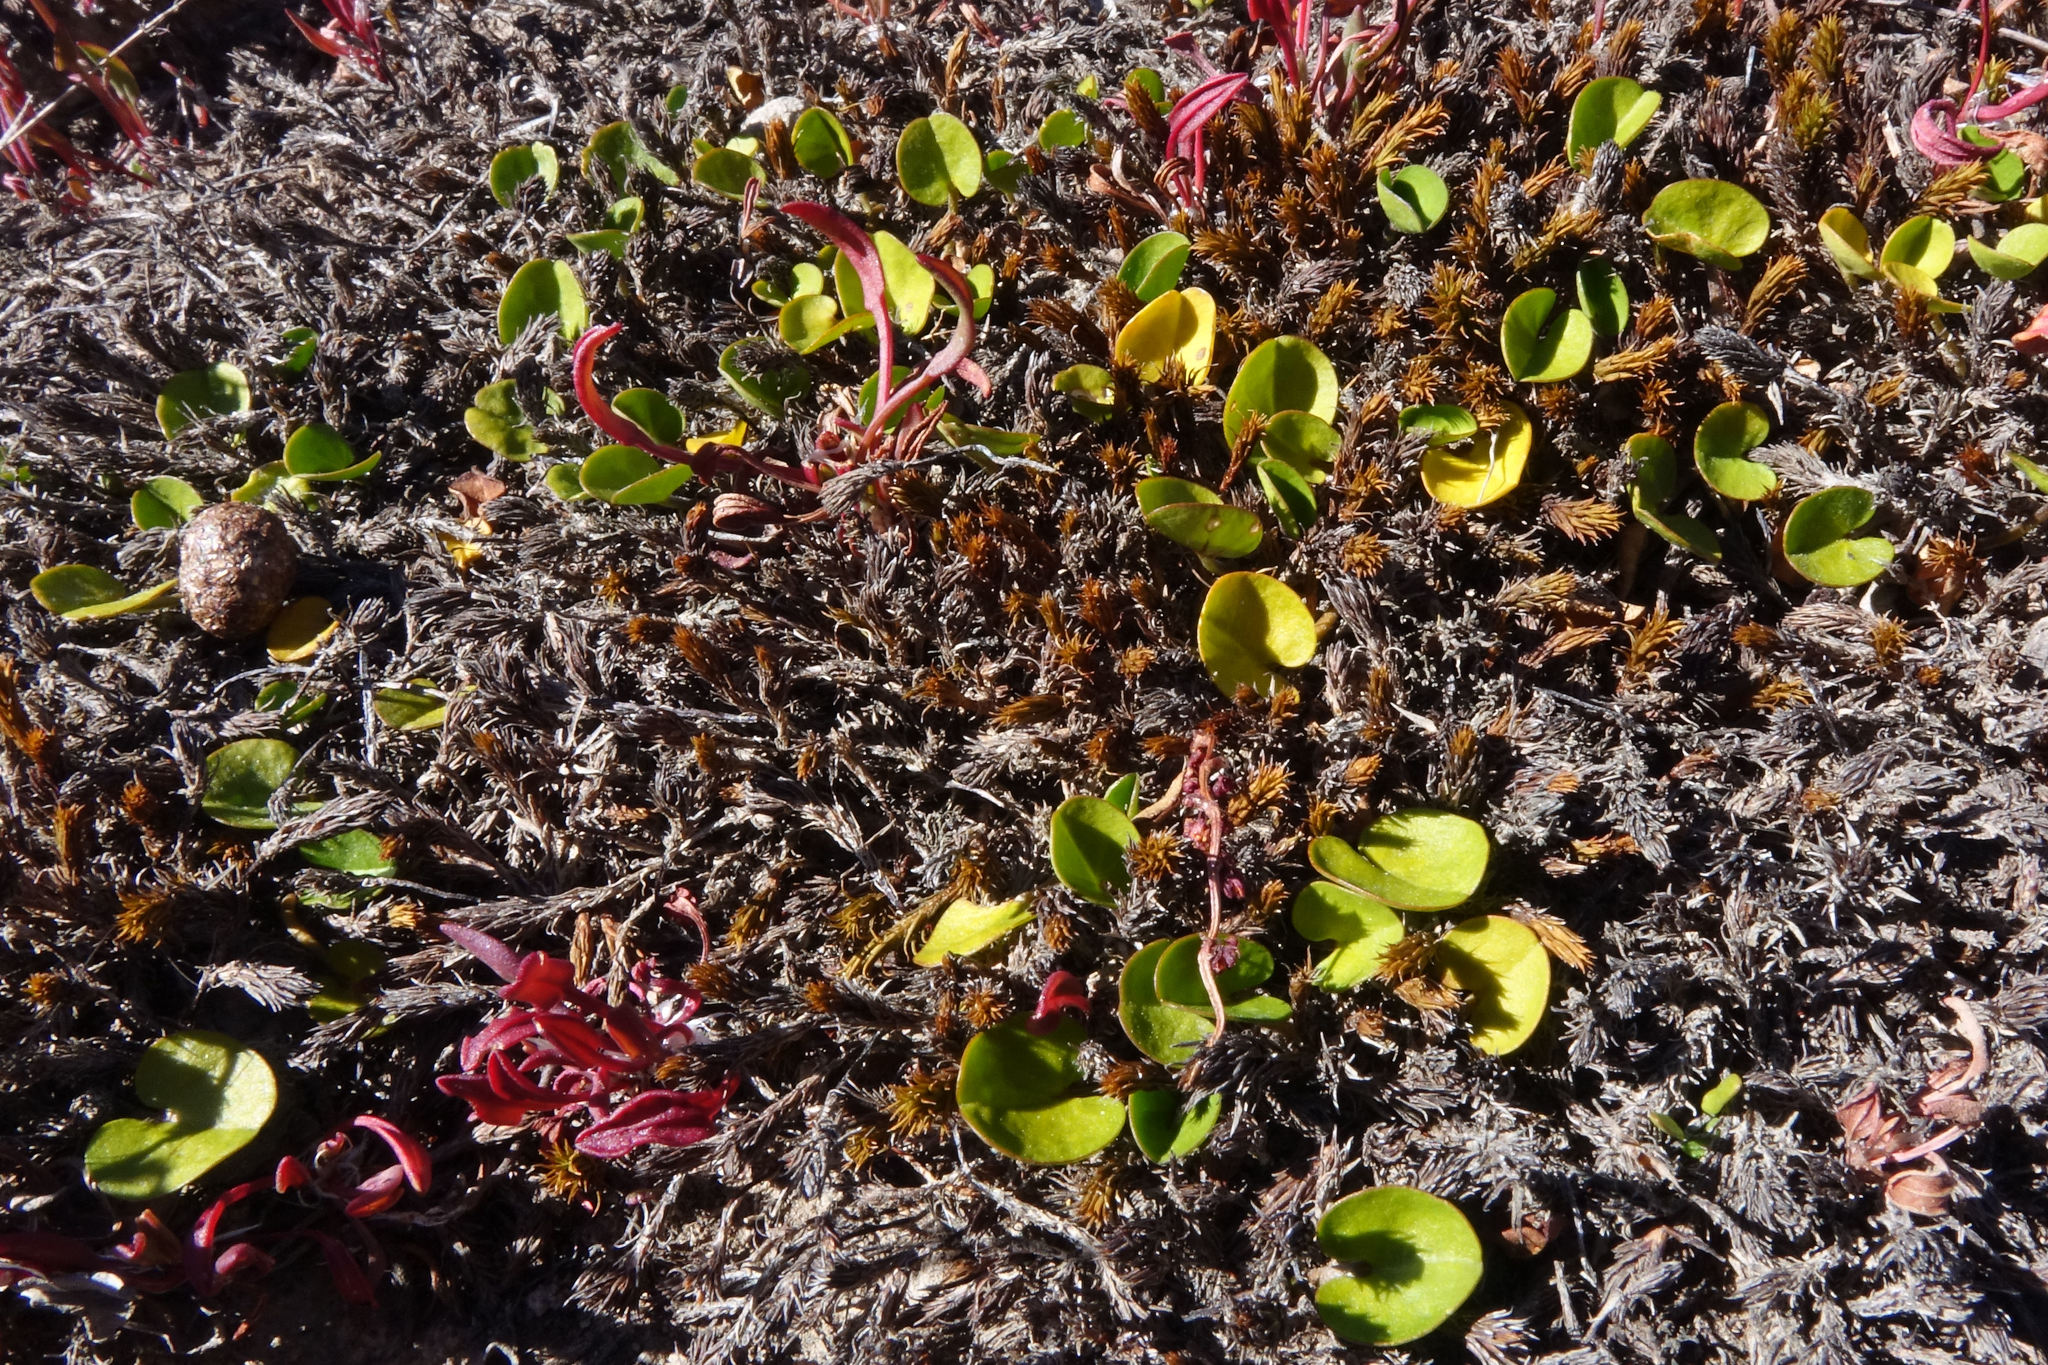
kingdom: Plantae
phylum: Tracheophyta
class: Magnoliopsida
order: Solanales
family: Convolvulaceae
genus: Dichondra
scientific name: Dichondra brevifolia
